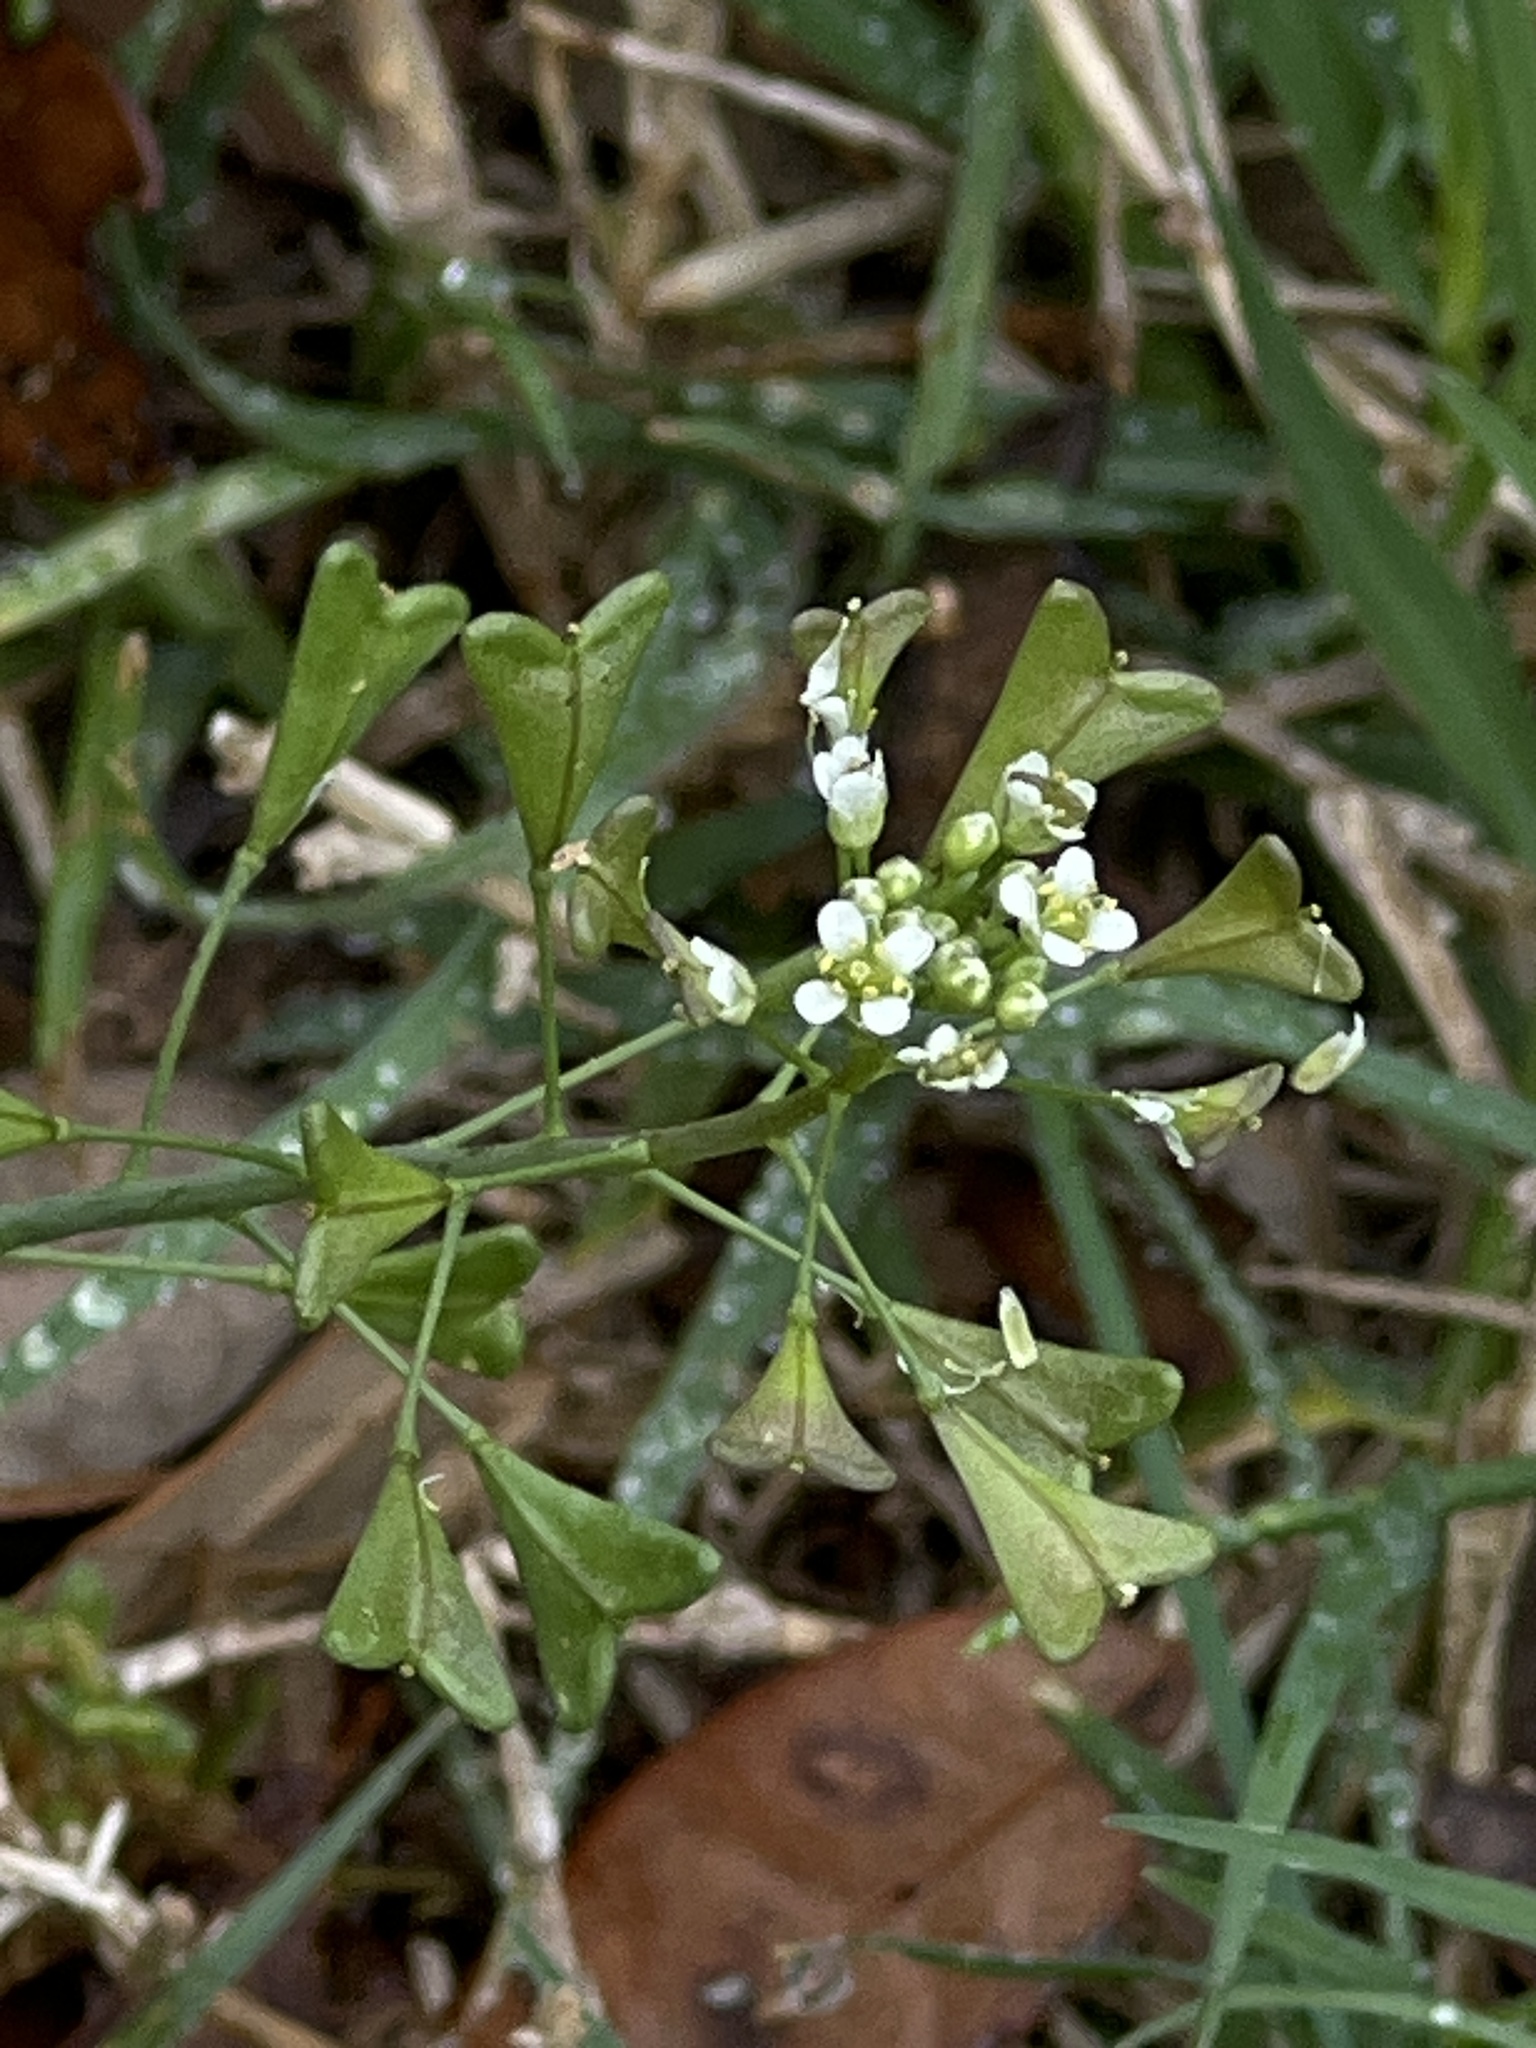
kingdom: Plantae
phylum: Tracheophyta
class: Magnoliopsida
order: Brassicales
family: Brassicaceae
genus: Capsella
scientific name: Capsella bursa-pastoris
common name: Shepherd's purse
